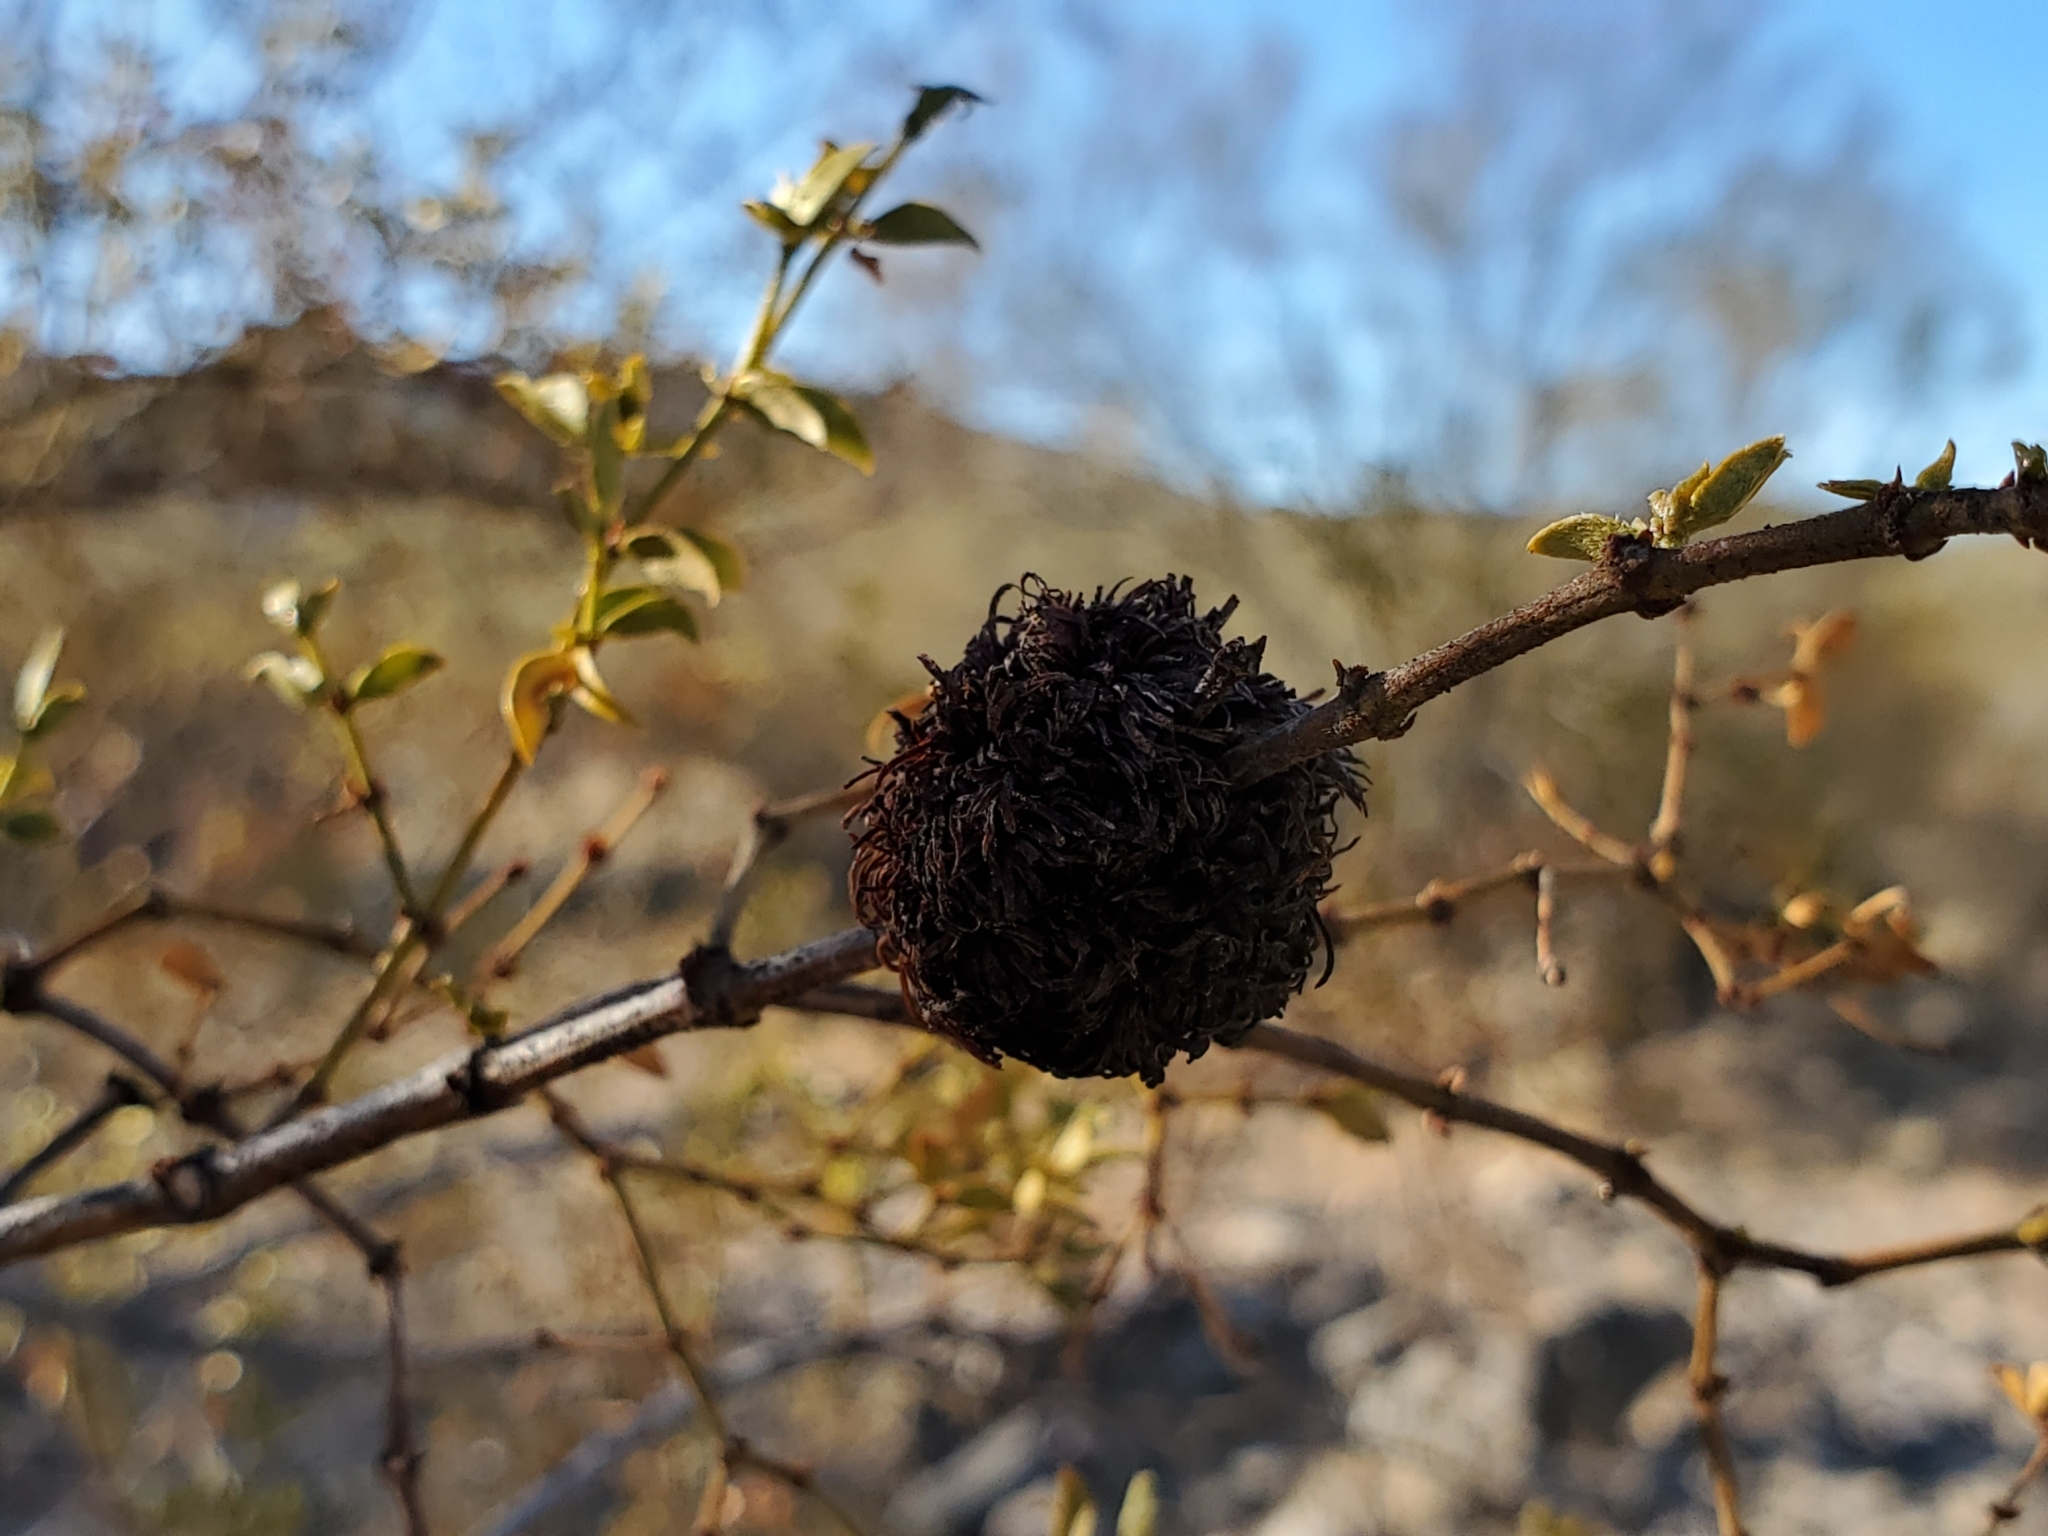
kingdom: Animalia
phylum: Arthropoda
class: Insecta
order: Diptera
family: Cecidomyiidae
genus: Asphondylia
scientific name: Asphondylia auripila
